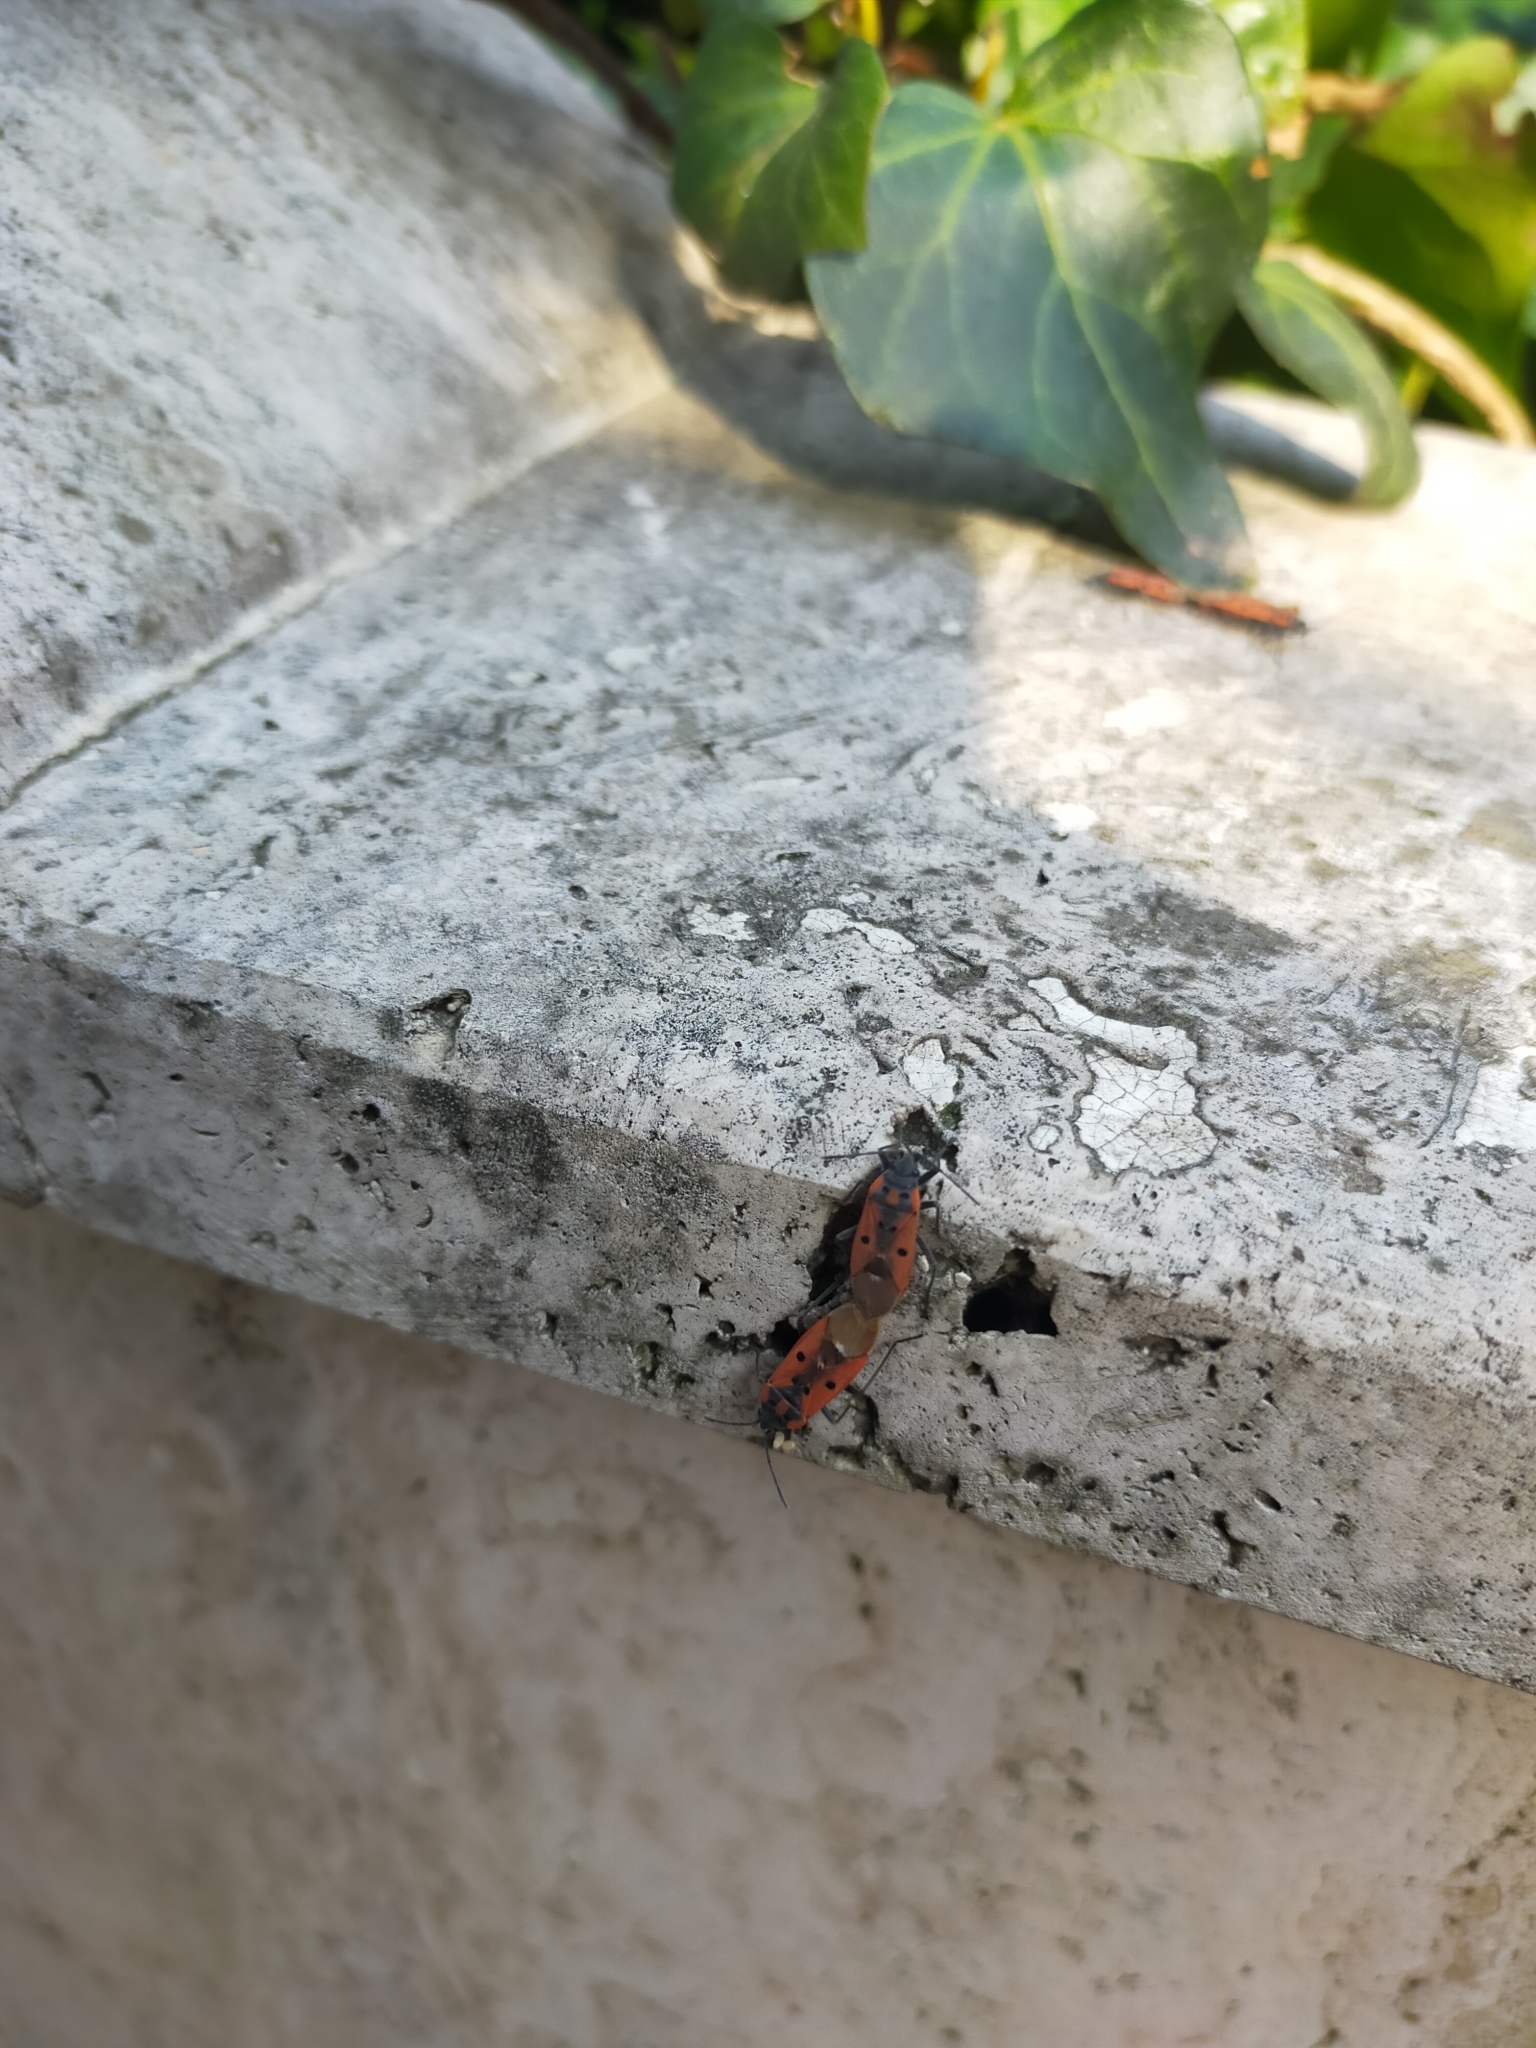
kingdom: Animalia
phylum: Arthropoda
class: Insecta
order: Hemiptera
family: Lygaeidae
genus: Lygaeus
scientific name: Lygaeus creticus
